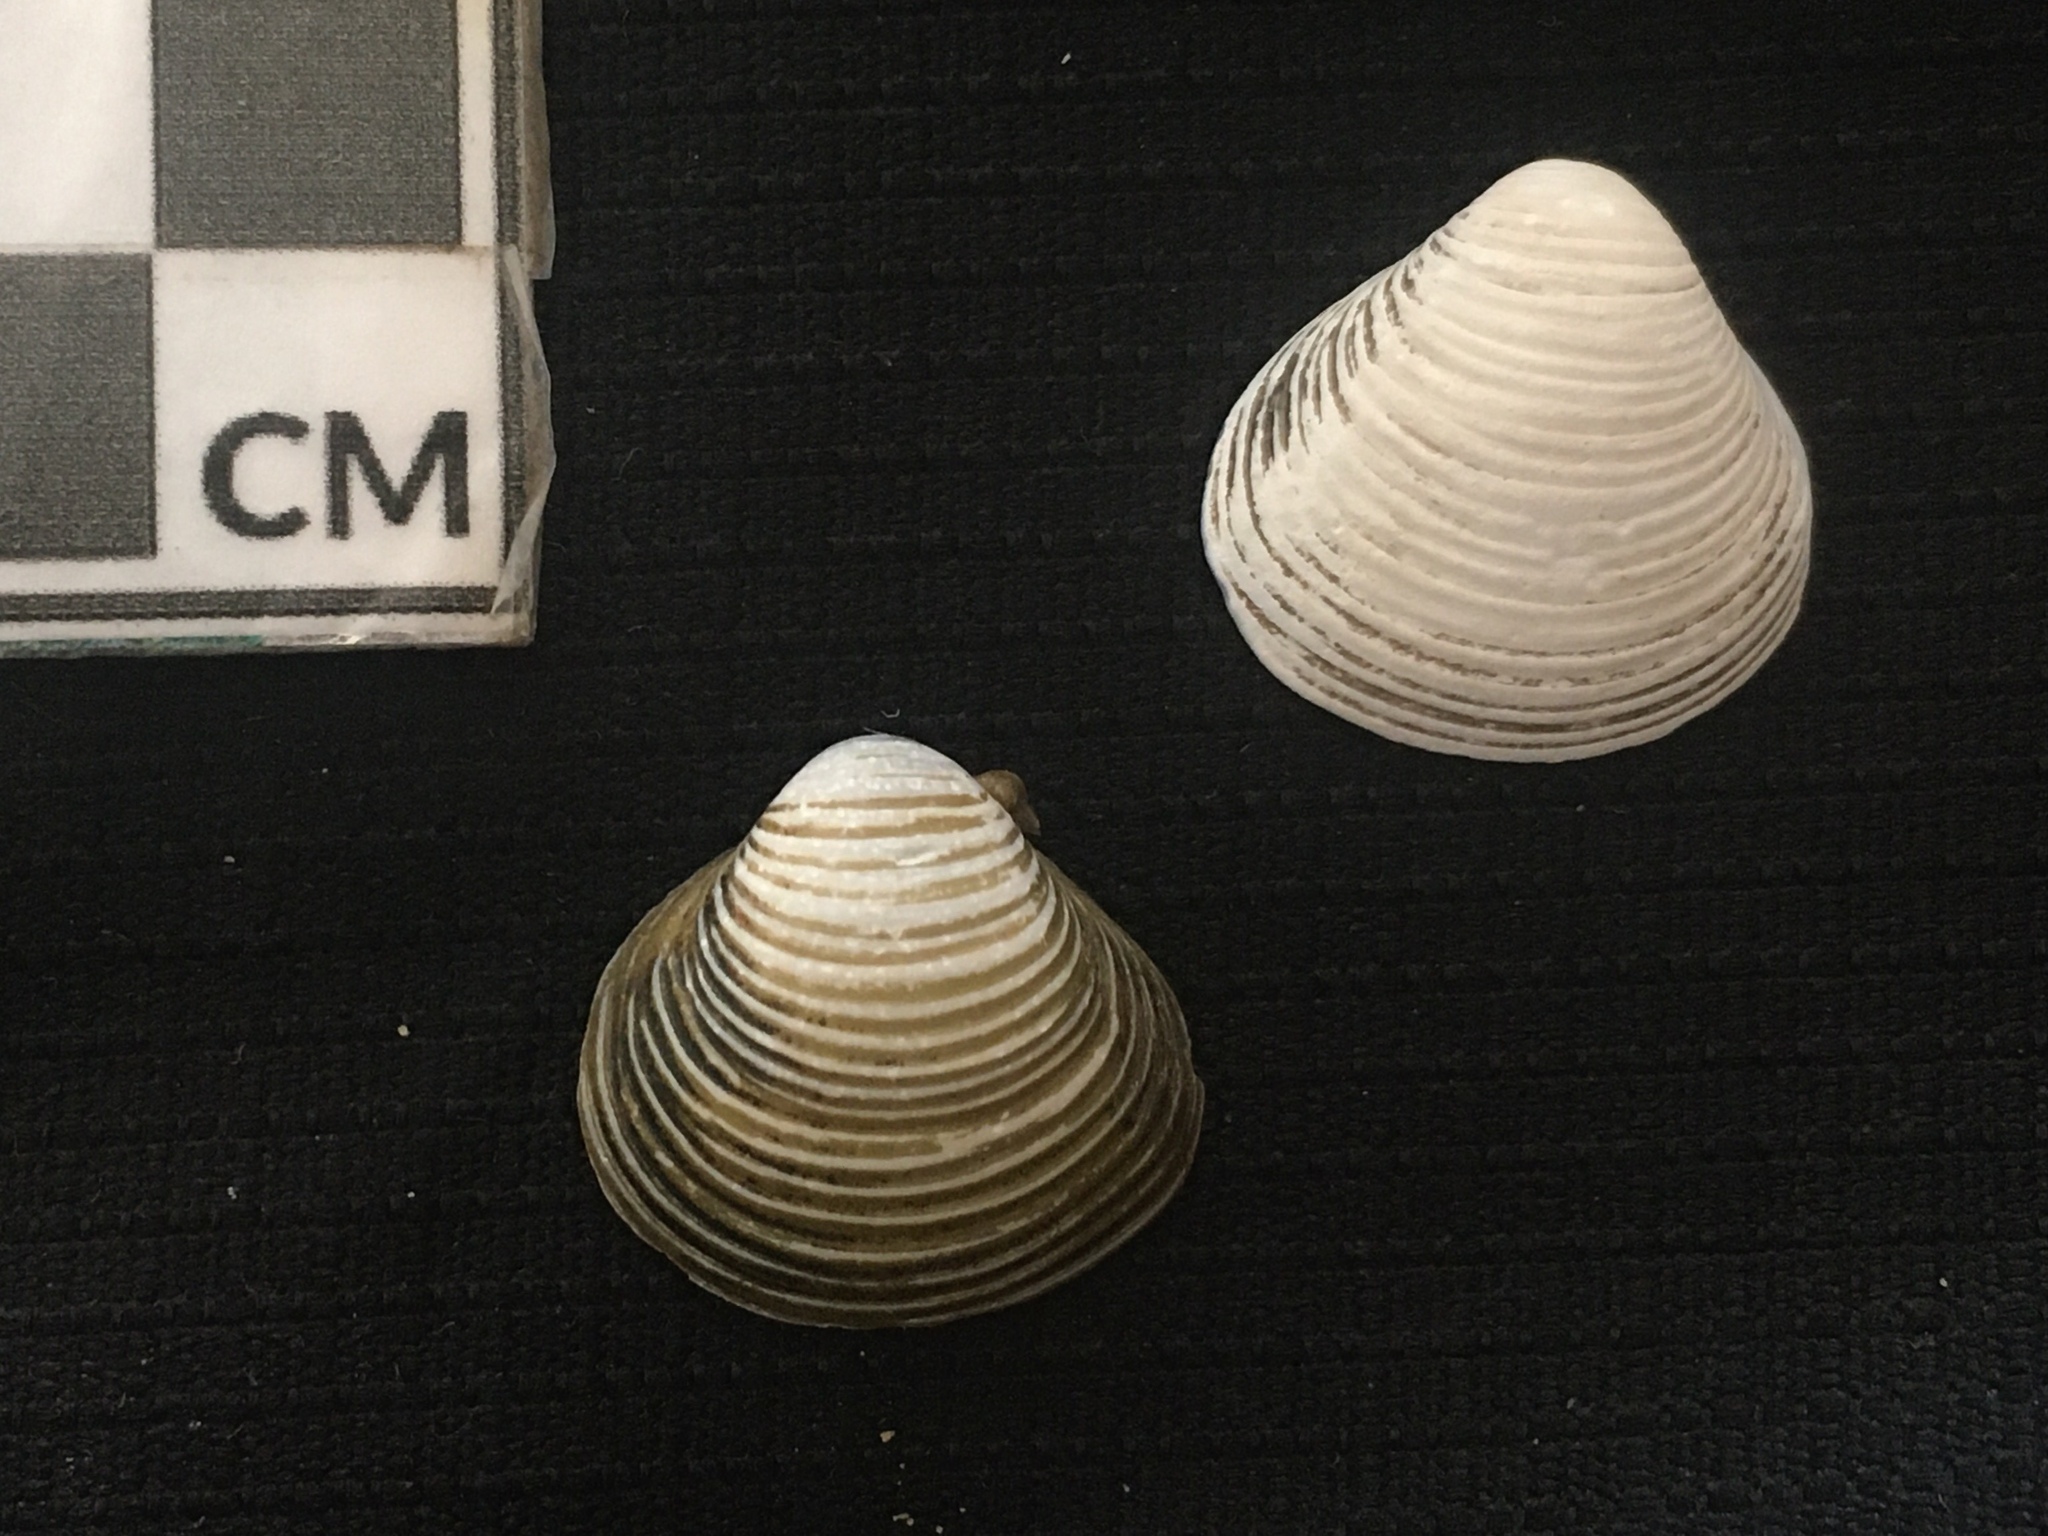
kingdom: Animalia
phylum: Mollusca
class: Bivalvia
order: Venerida
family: Cyrenidae
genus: Corbicula
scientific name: Corbicula fluminea
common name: Asian clam
